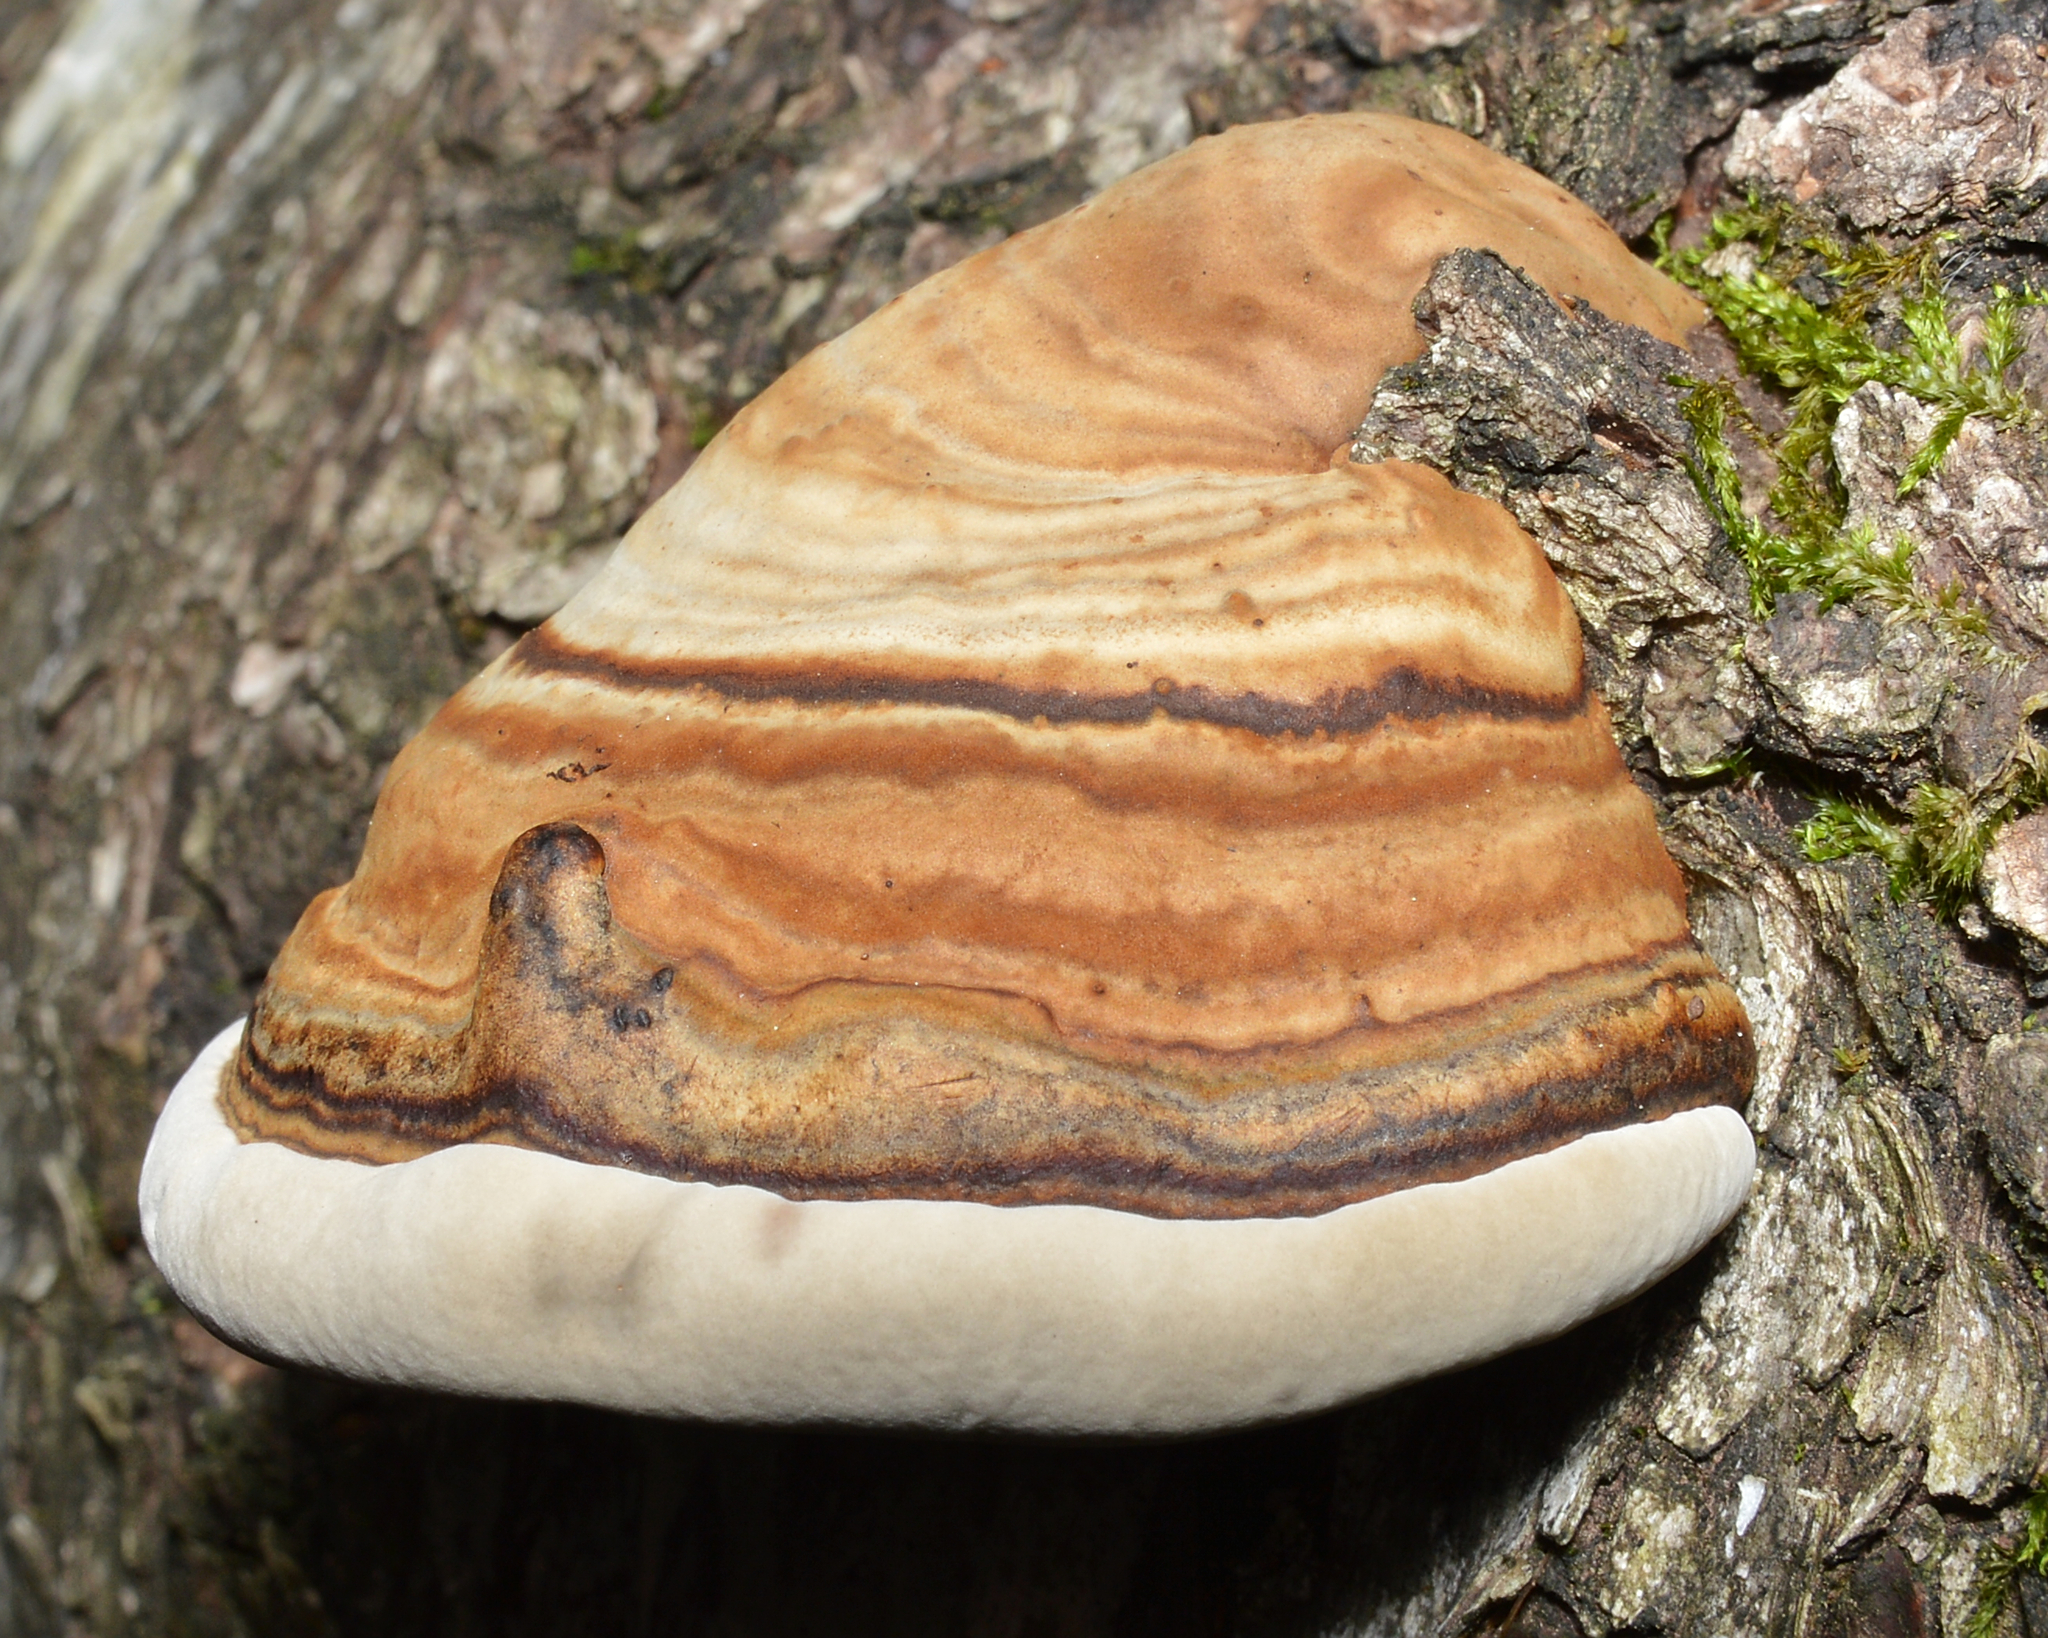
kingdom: Fungi
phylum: Basidiomycota
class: Agaricomycetes
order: Polyporales
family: Polyporaceae
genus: Fomes
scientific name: Fomes fomentarius
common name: Hoof fungus
